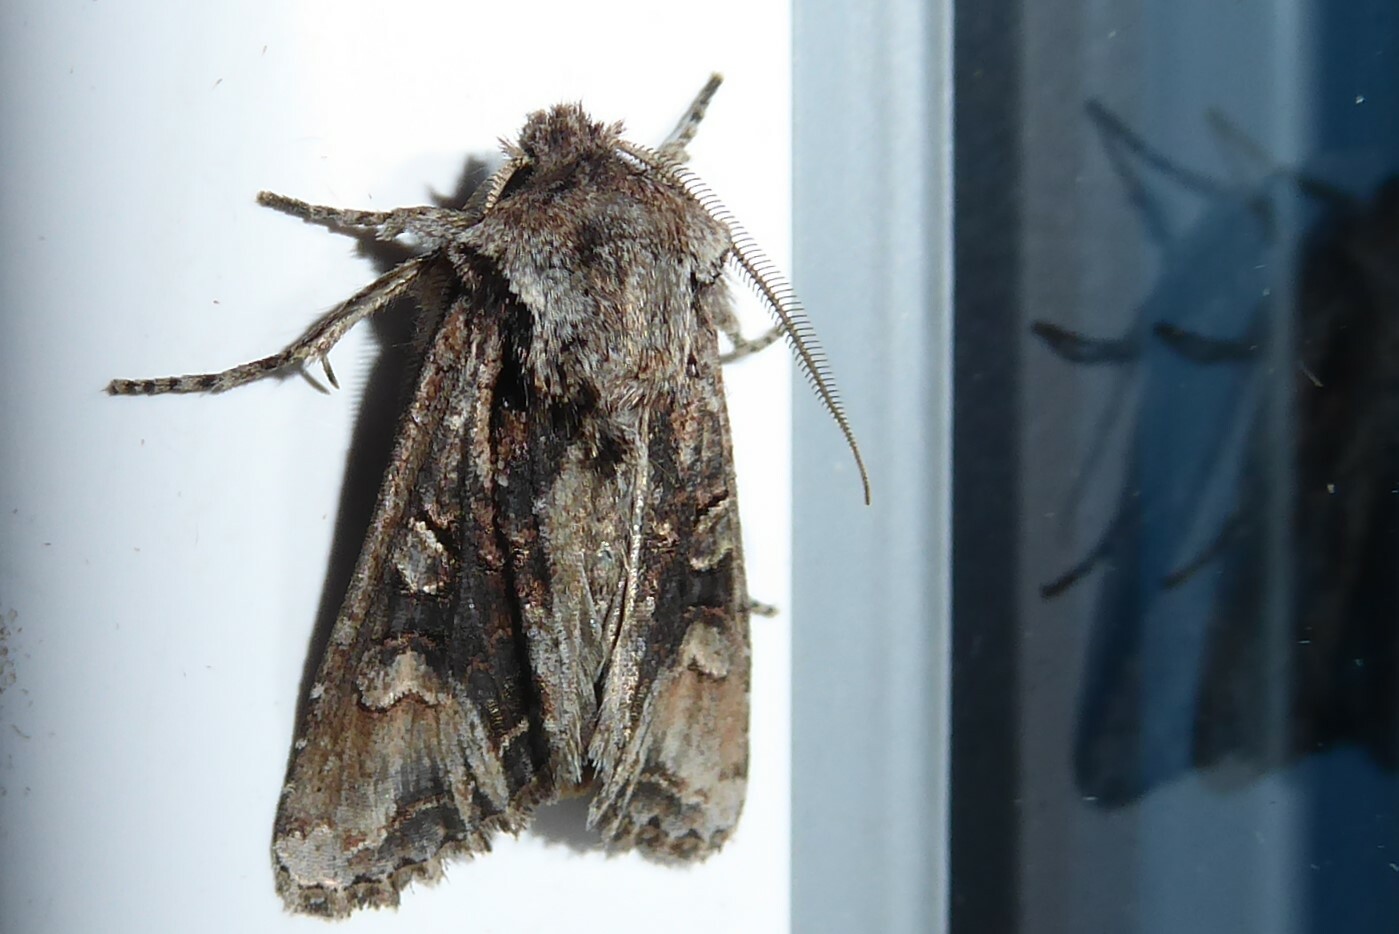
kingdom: Animalia
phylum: Arthropoda
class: Insecta
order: Lepidoptera
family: Noctuidae
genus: Ichneutica
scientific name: Ichneutica
